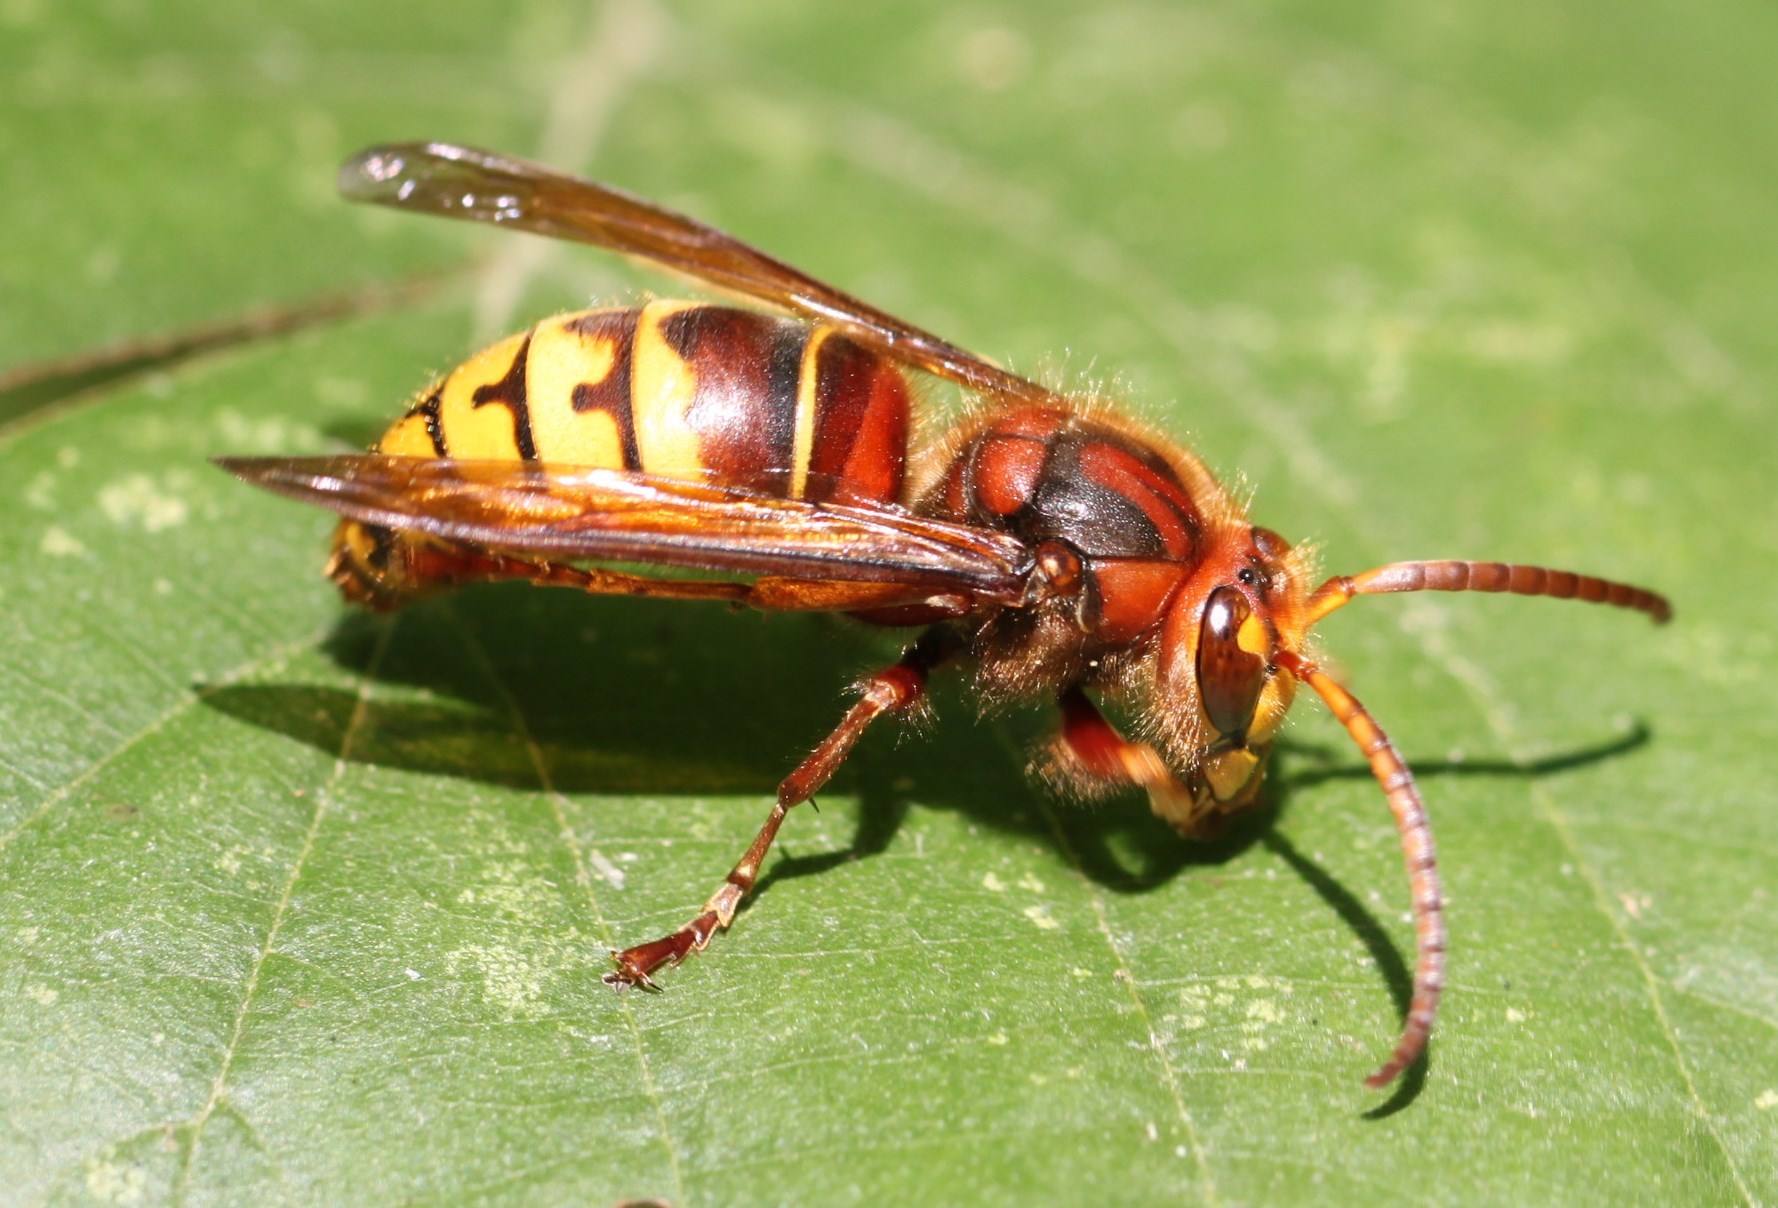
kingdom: Animalia
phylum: Arthropoda
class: Insecta
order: Hymenoptera
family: Vespidae
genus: Vespa
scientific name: Vespa crabro
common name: Hornet
